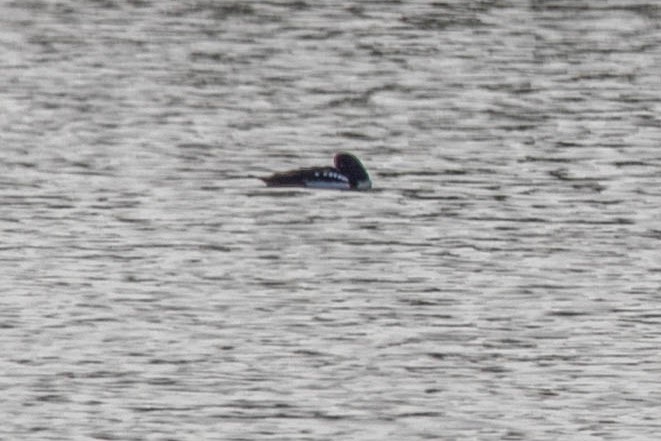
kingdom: Animalia
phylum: Chordata
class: Aves
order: Anseriformes
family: Anatidae
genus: Bucephala
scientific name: Bucephala islandica
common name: Barrow's goldeneye
